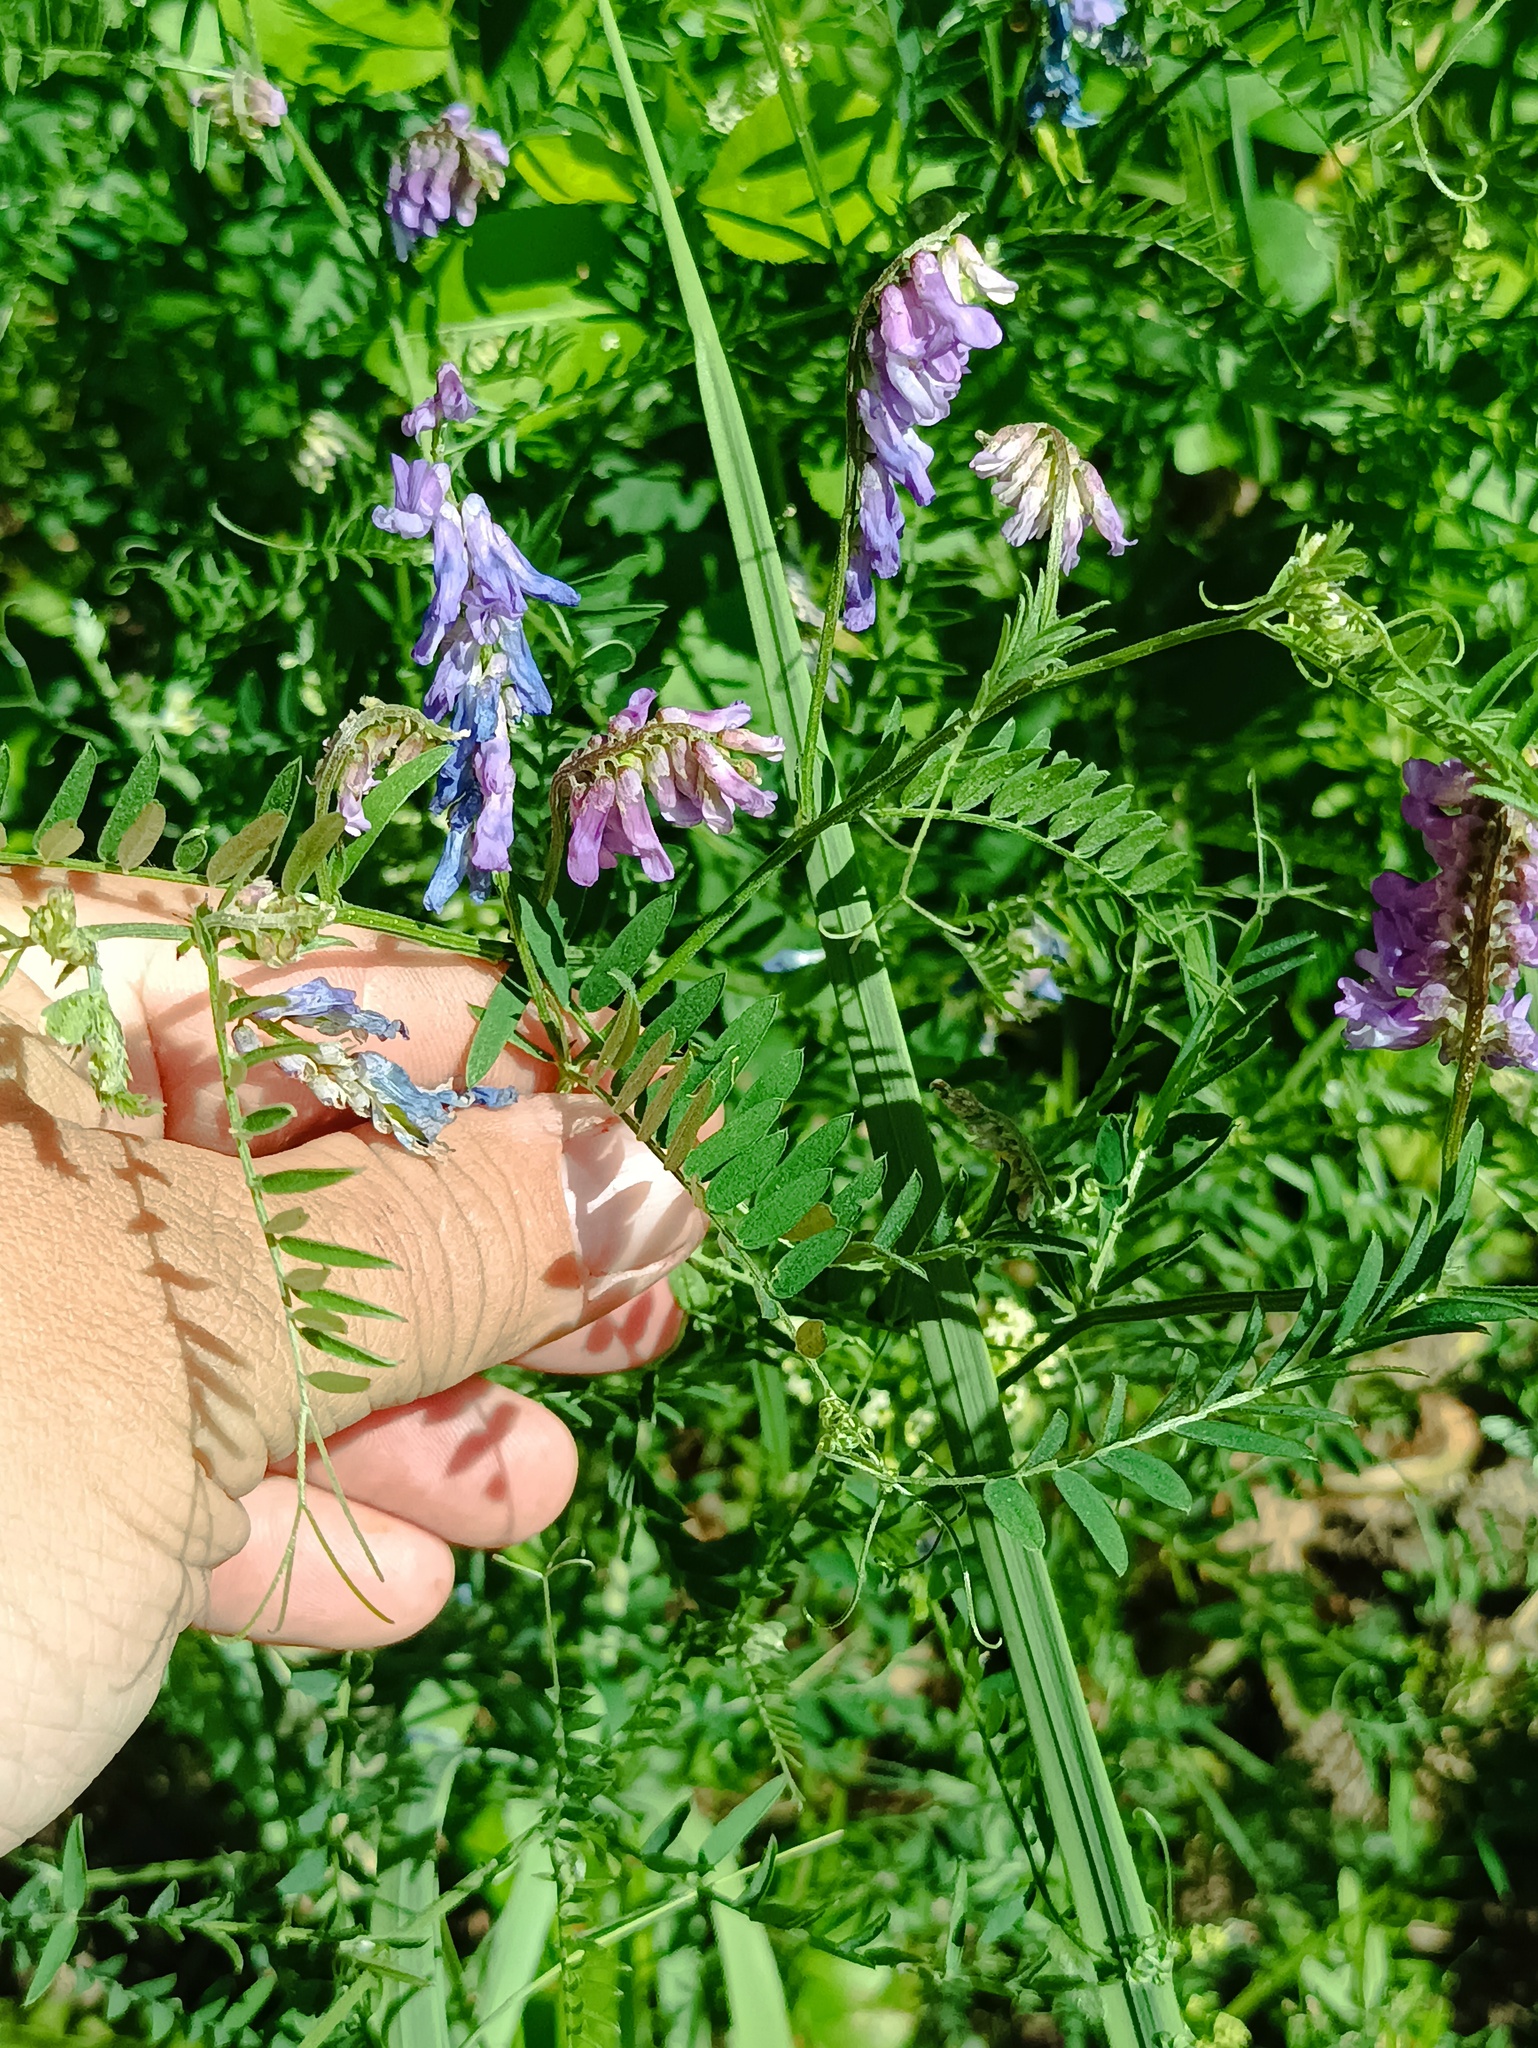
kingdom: Plantae
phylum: Tracheophyta
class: Magnoliopsida
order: Fabales
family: Fabaceae
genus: Vicia
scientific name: Vicia cracca
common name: Bird vetch
